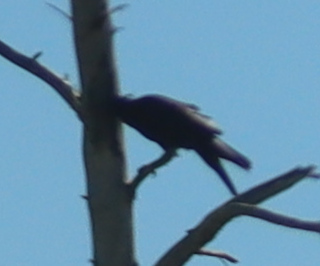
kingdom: Animalia
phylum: Chordata
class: Aves
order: Accipitriformes
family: Cathartidae
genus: Cathartes
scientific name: Cathartes aura
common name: Turkey vulture
